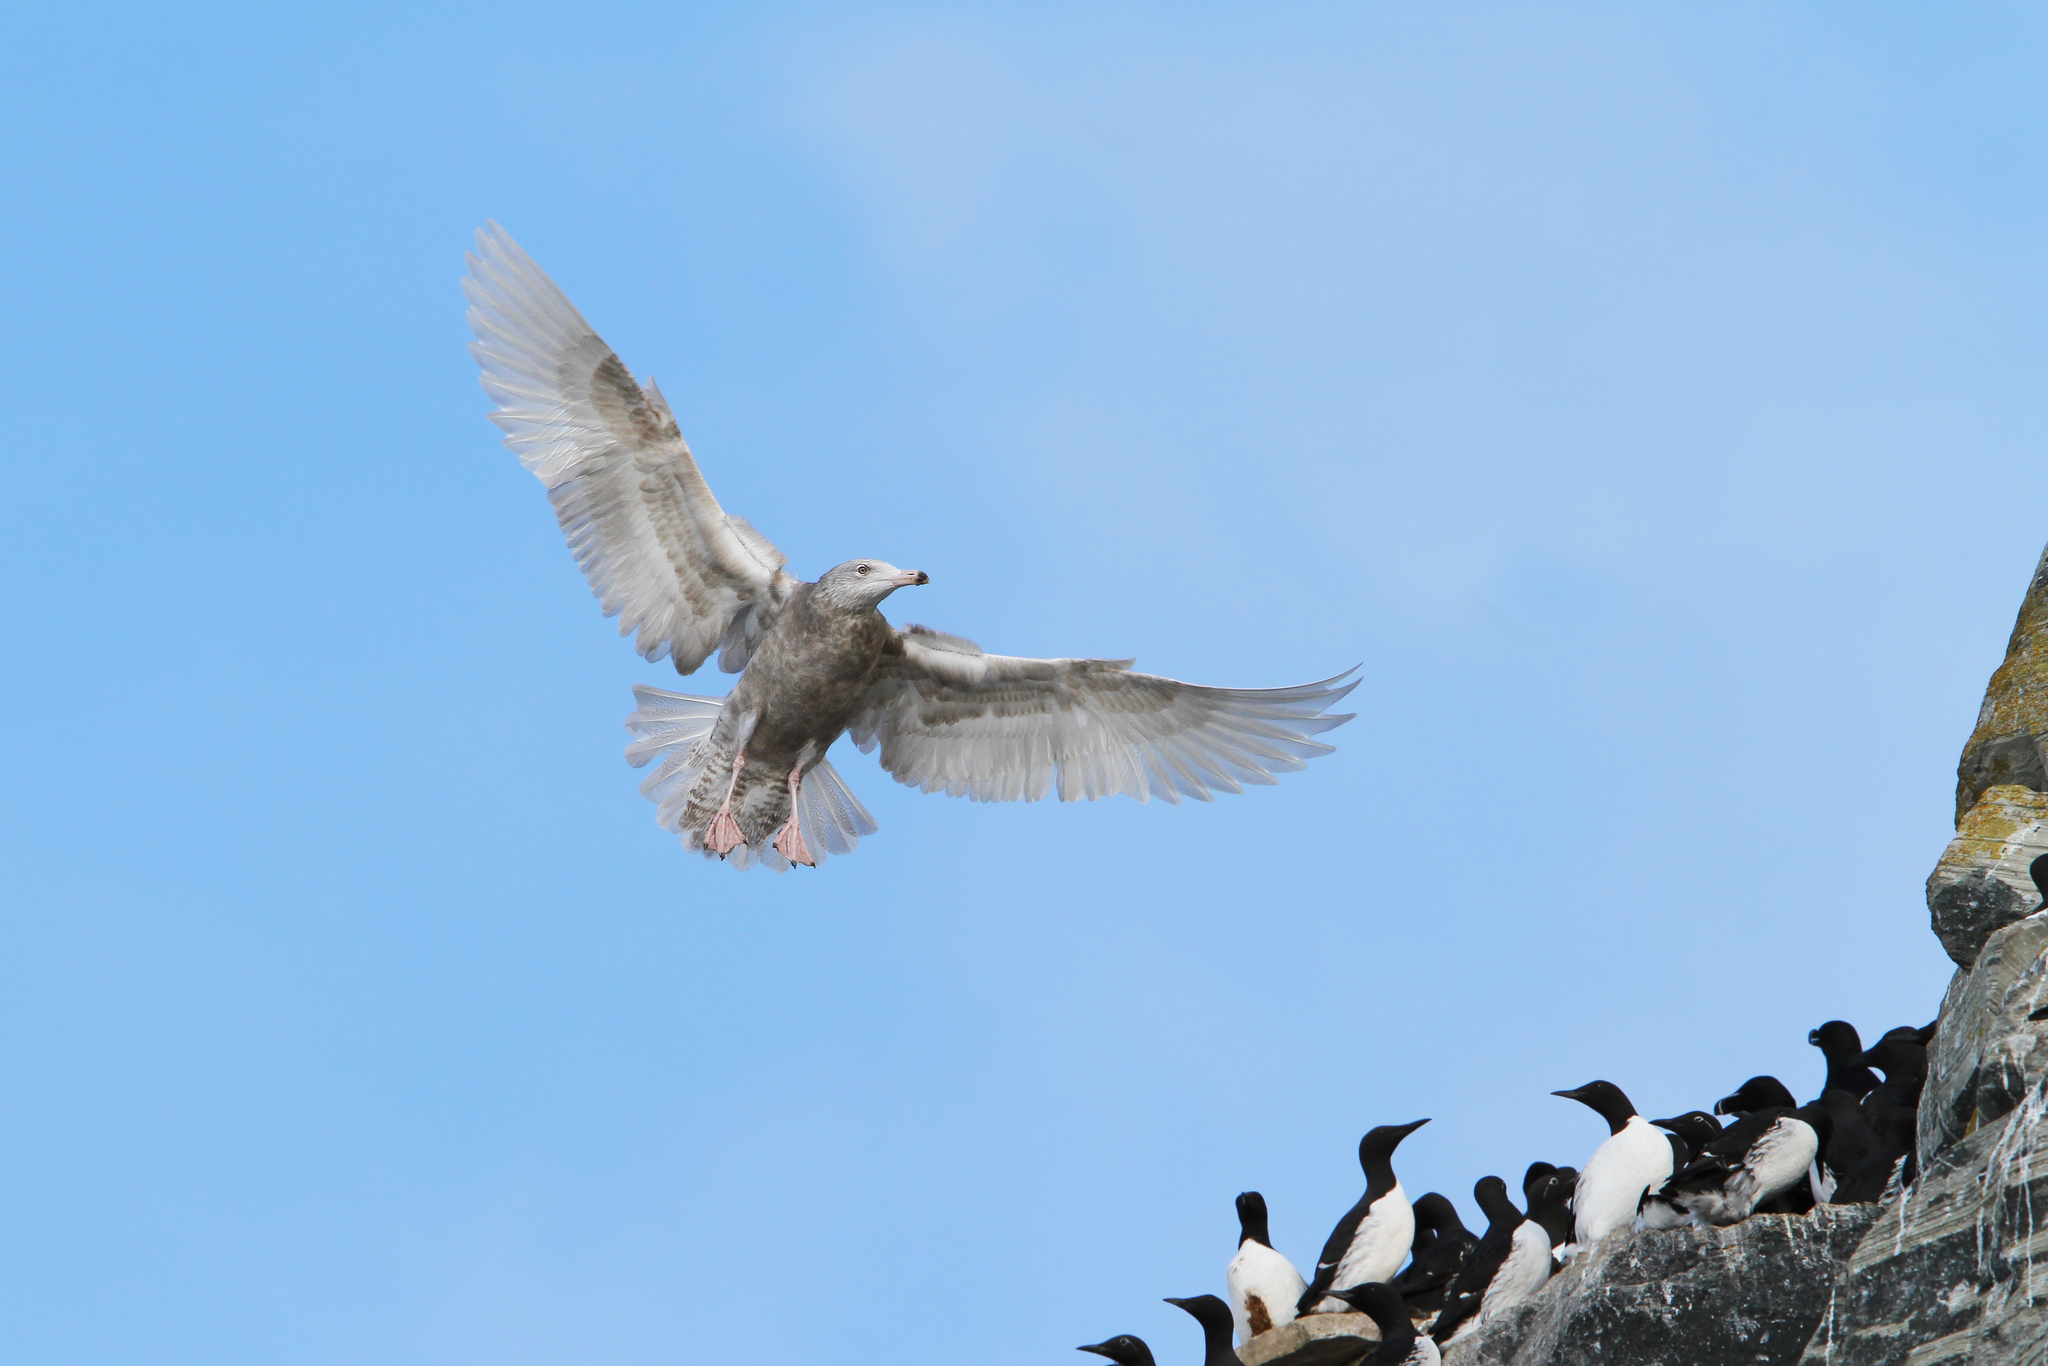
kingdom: Animalia
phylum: Chordata
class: Aves
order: Charadriiformes
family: Laridae
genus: Larus
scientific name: Larus hyperboreus
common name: Glaucous gull
